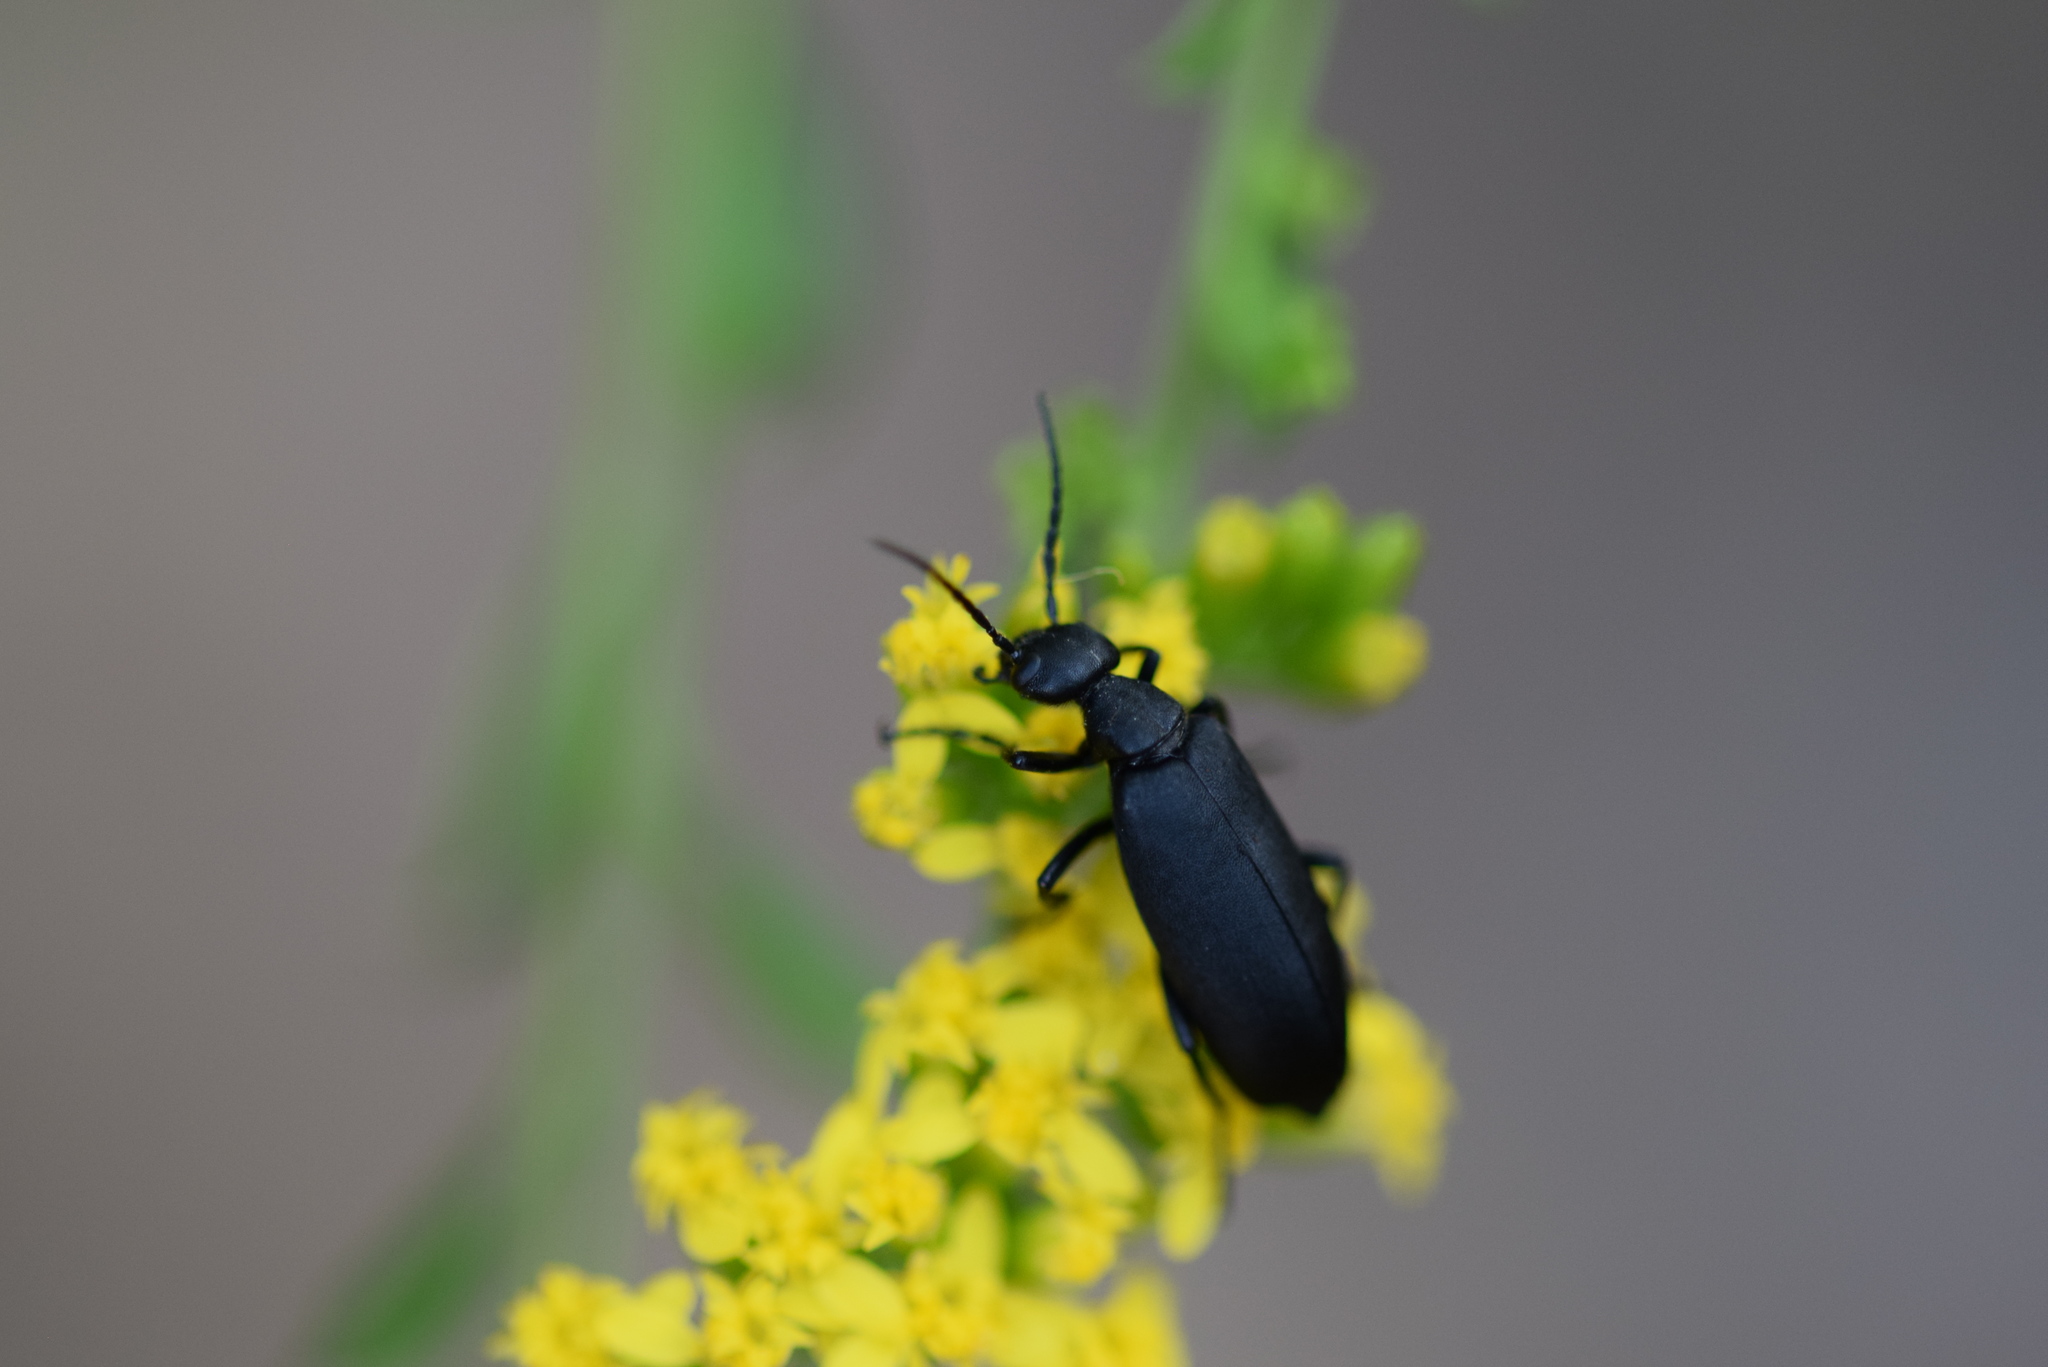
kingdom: Animalia
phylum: Arthropoda
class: Insecta
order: Coleoptera
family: Meloidae
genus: Epicauta
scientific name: Epicauta pensylvanica
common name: Black blister beetle
